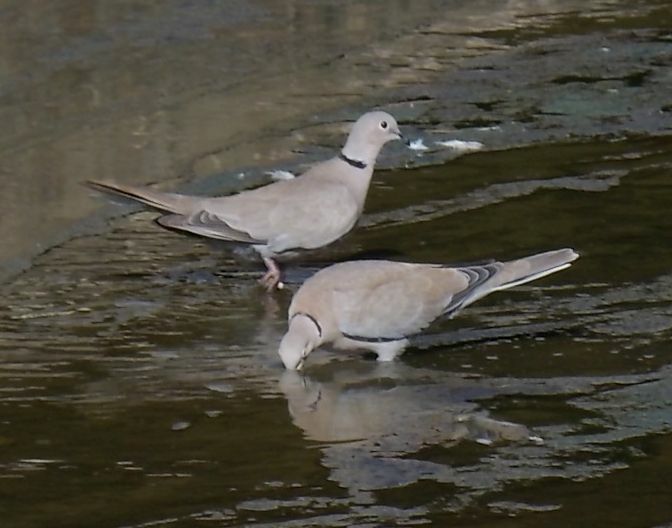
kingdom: Animalia
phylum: Chordata
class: Aves
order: Columbiformes
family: Columbidae
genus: Streptopelia
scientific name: Streptopelia decaocto
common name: Eurasian collared dove
